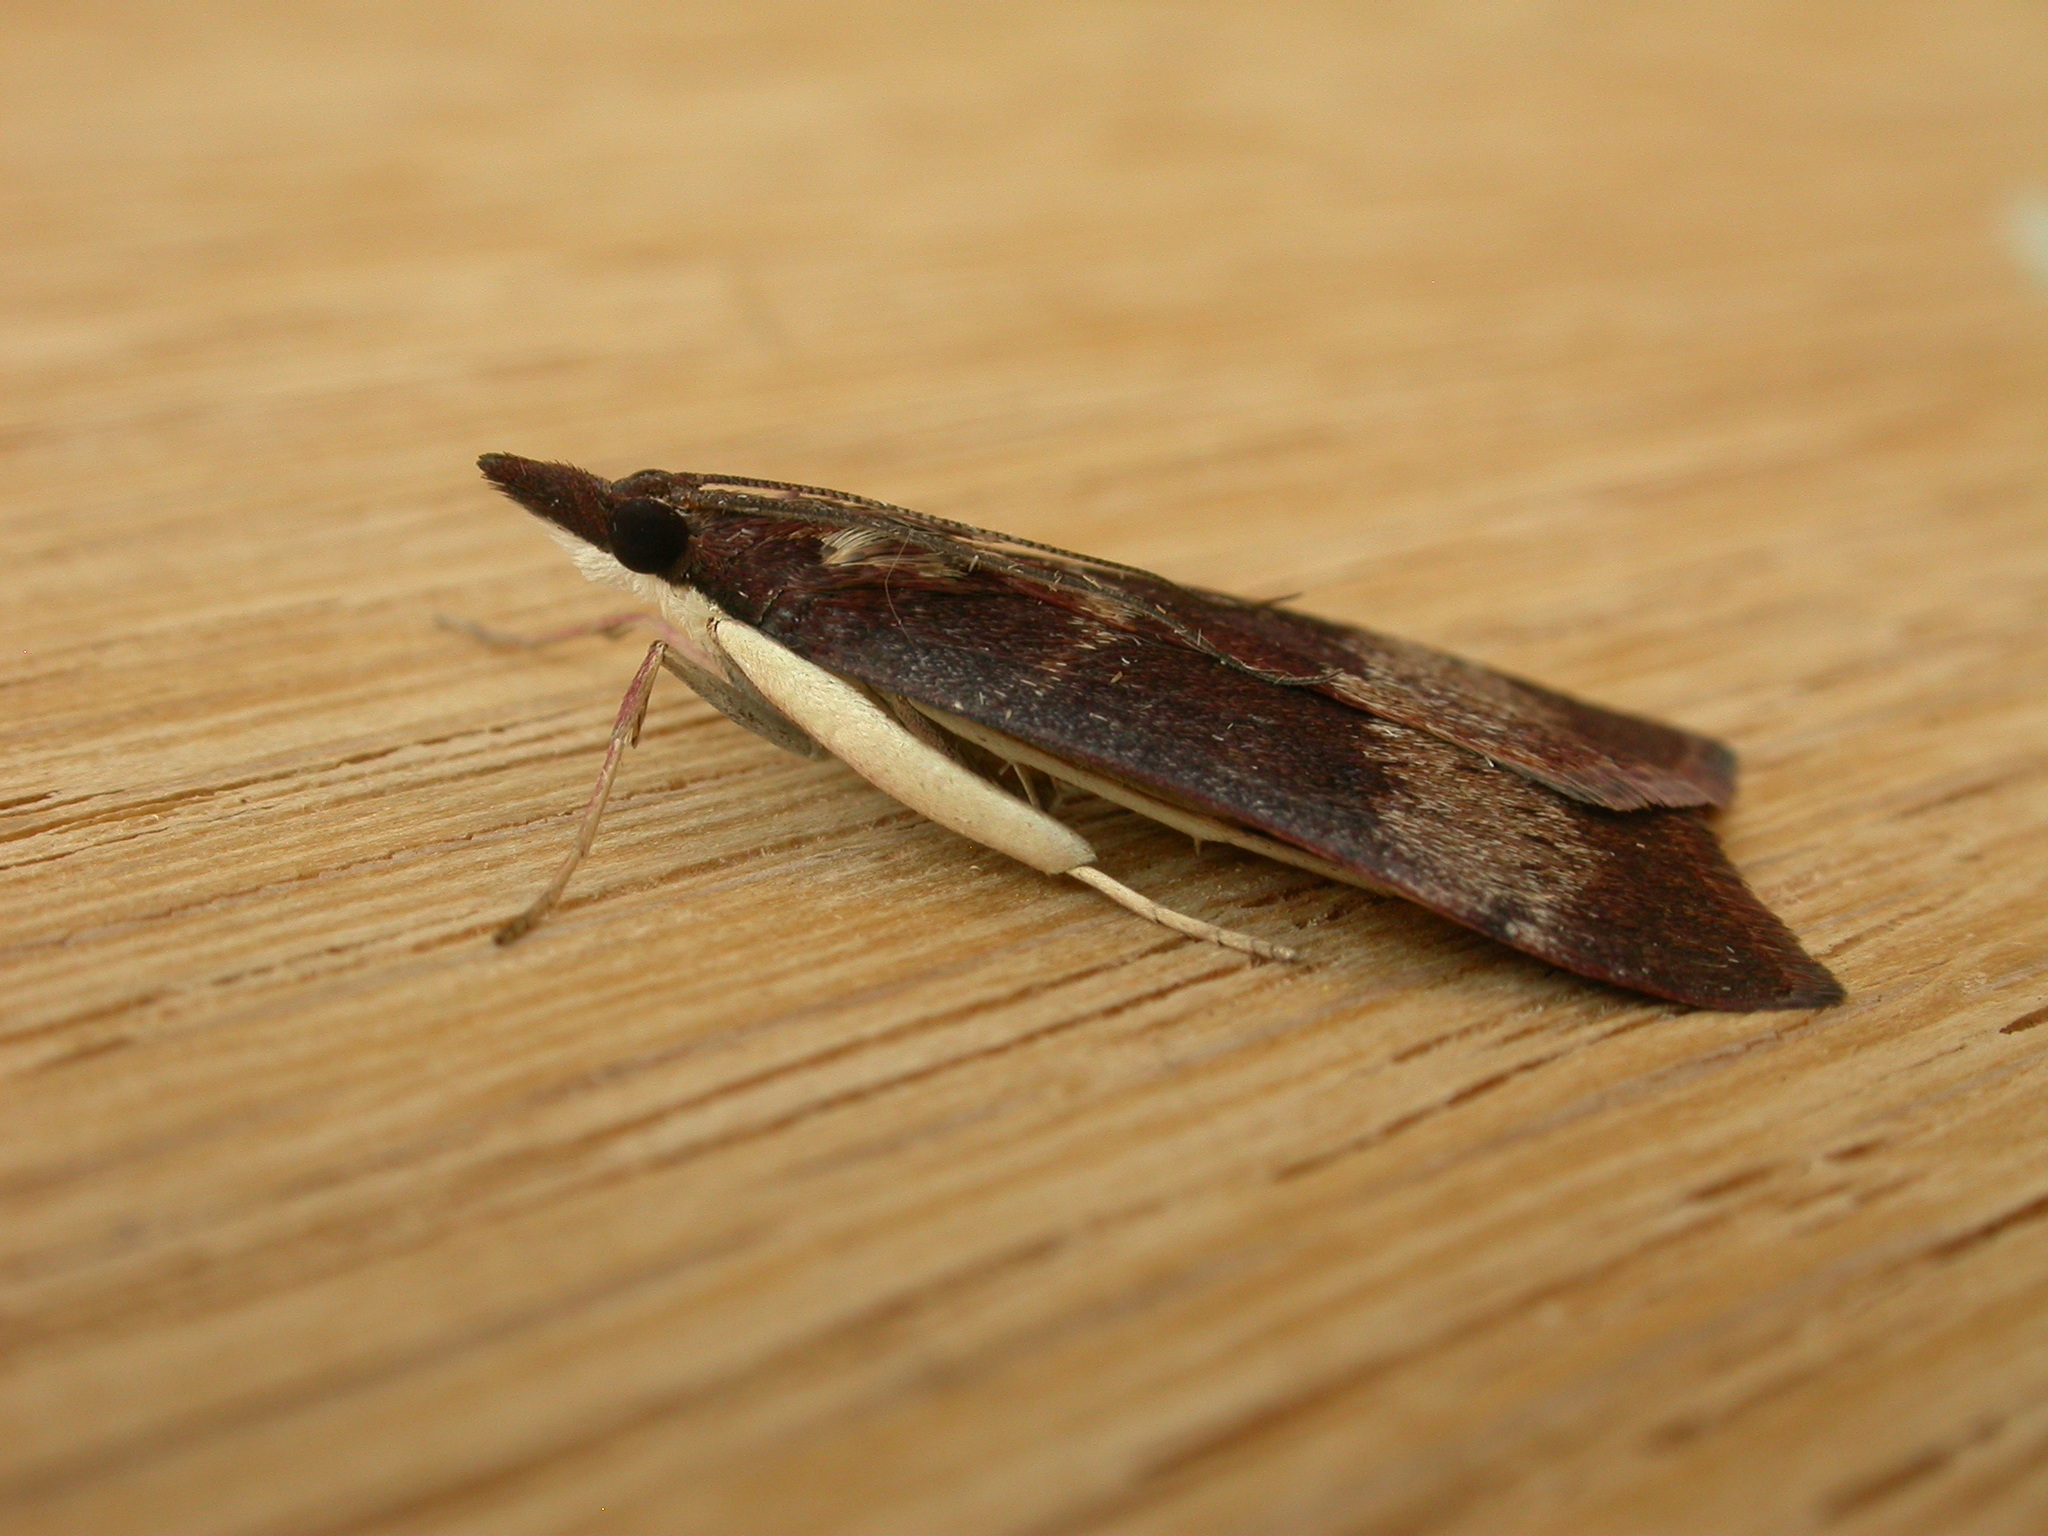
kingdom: Animalia
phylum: Arthropoda
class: Insecta
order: Lepidoptera
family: Crambidae
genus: Uresiphita
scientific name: Uresiphita ornithopteralis
